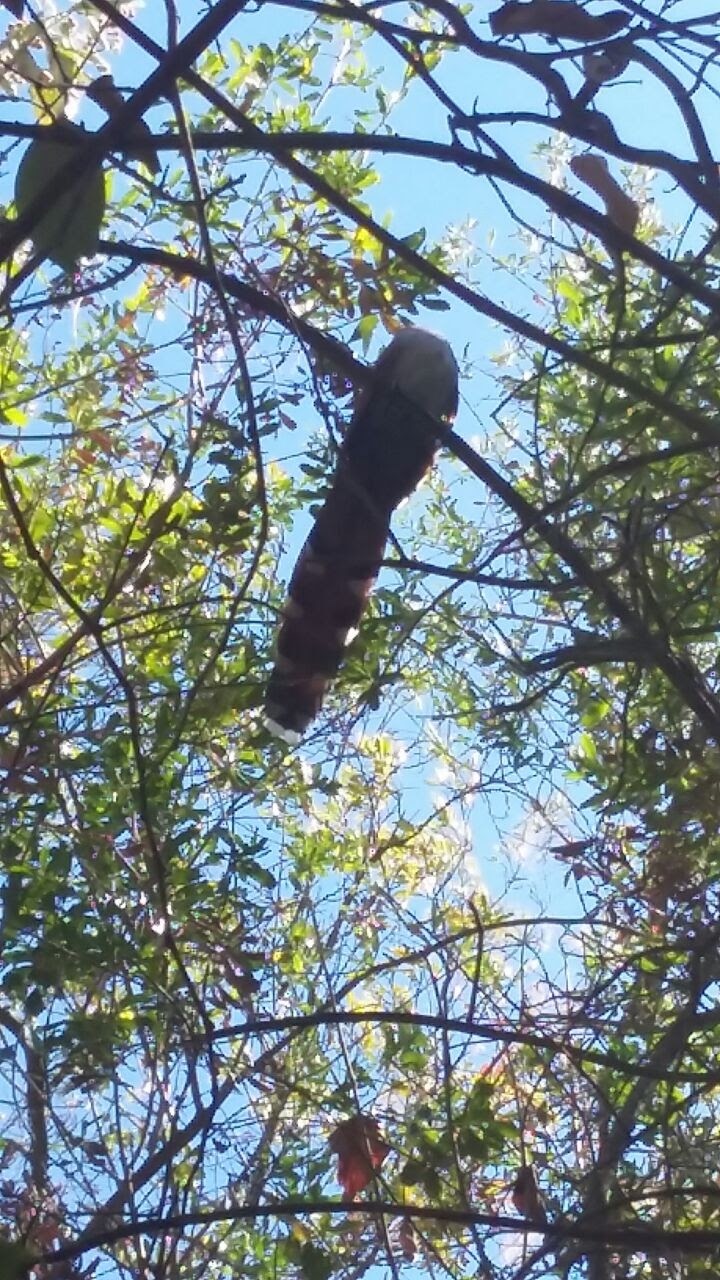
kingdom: Animalia
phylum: Chordata
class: Aves
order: Cuculiformes
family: Cuculidae
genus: Piaya
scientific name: Piaya cayana
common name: Squirrel cuckoo
